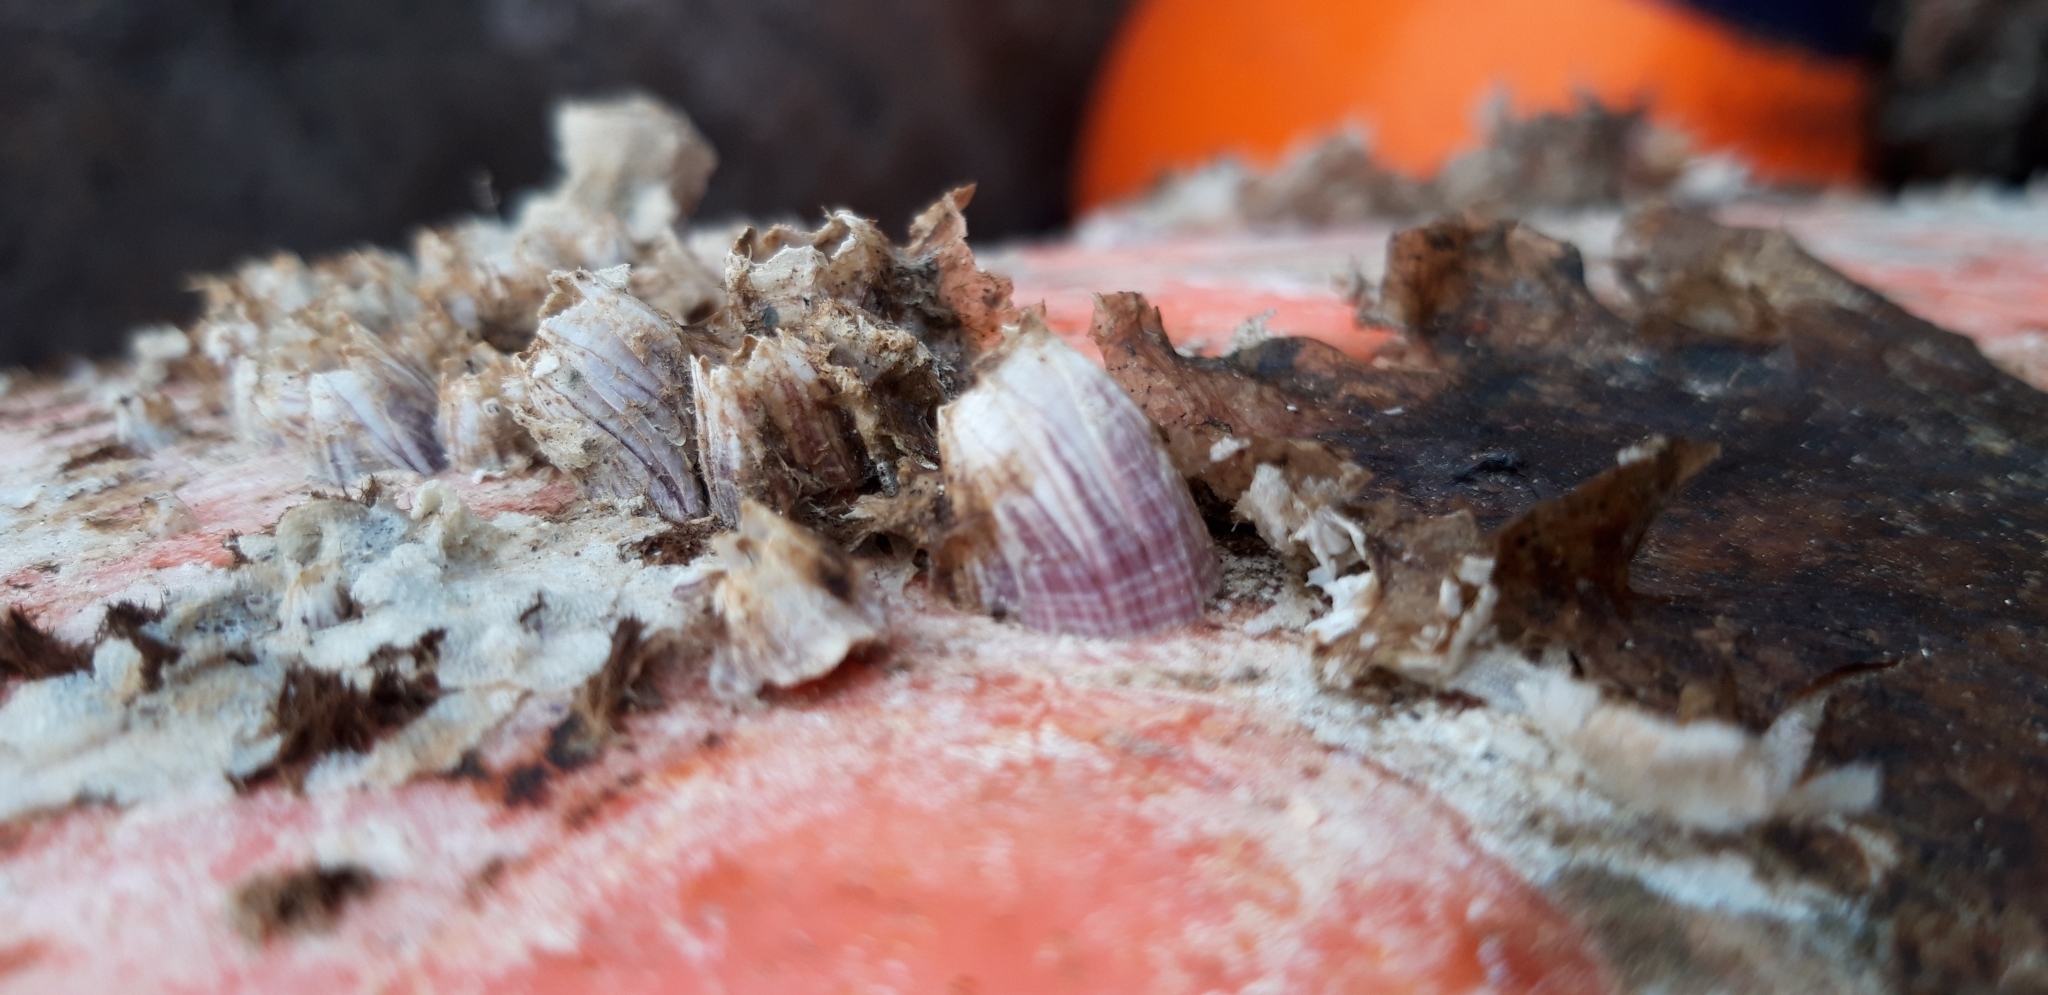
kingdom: Animalia
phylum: Arthropoda
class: Maxillopoda
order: Sessilia
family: Balanidae
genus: Megabalanus
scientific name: Megabalanus azoricus
